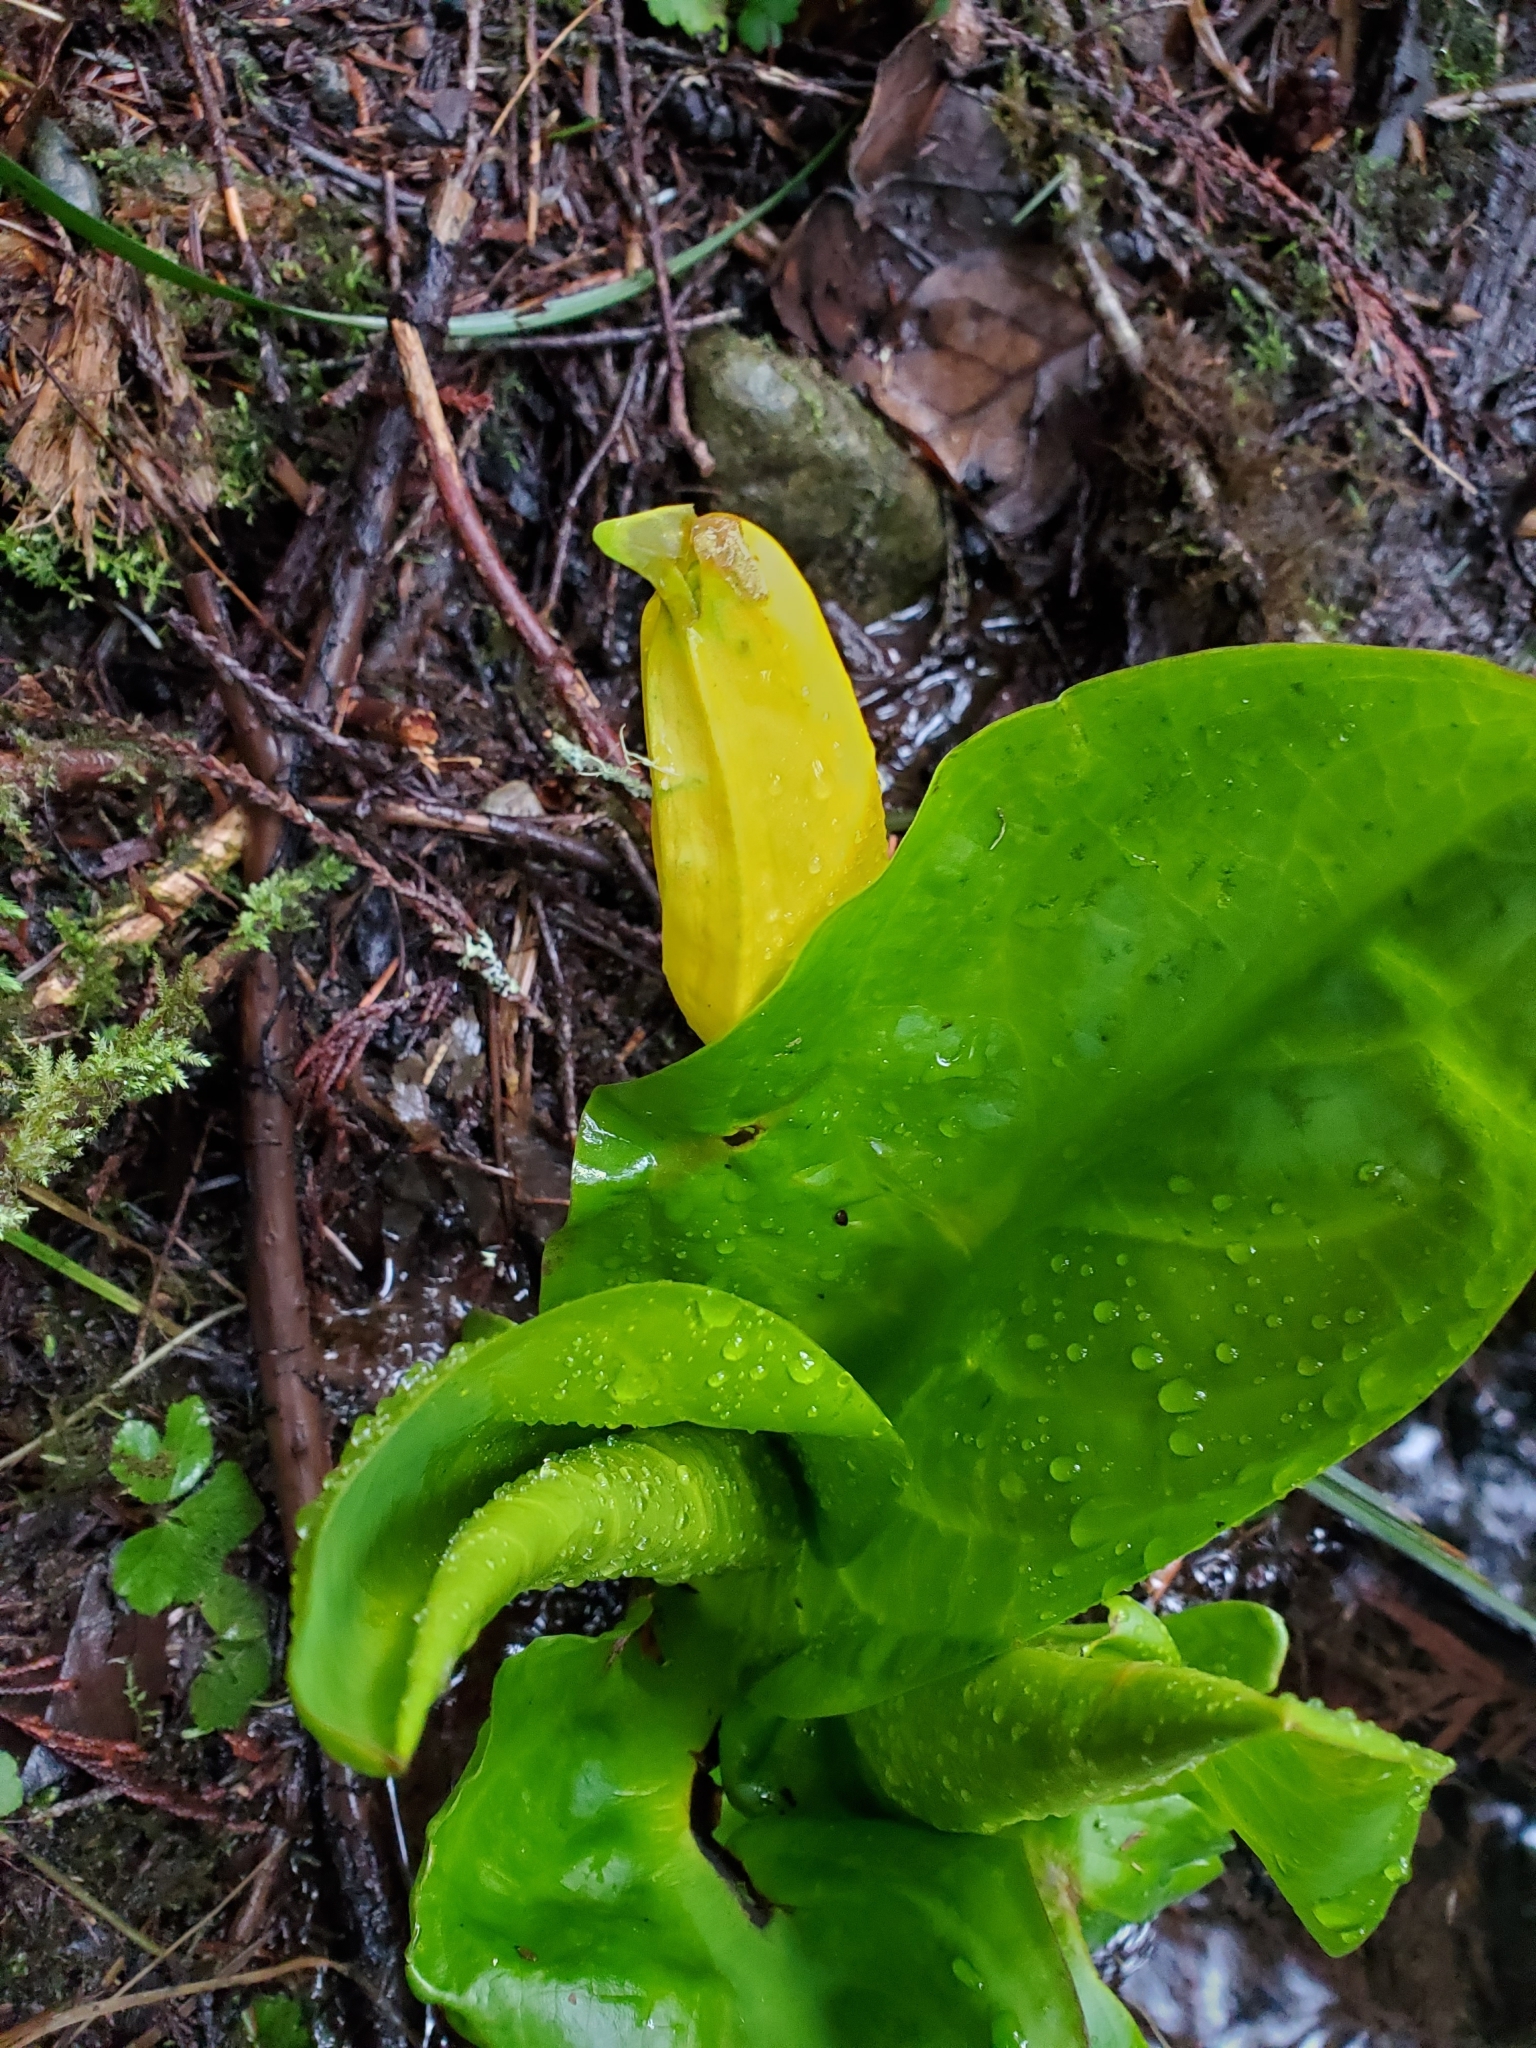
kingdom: Plantae
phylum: Tracheophyta
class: Liliopsida
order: Alismatales
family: Araceae
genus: Lysichiton
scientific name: Lysichiton americanus
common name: American skunk cabbage
